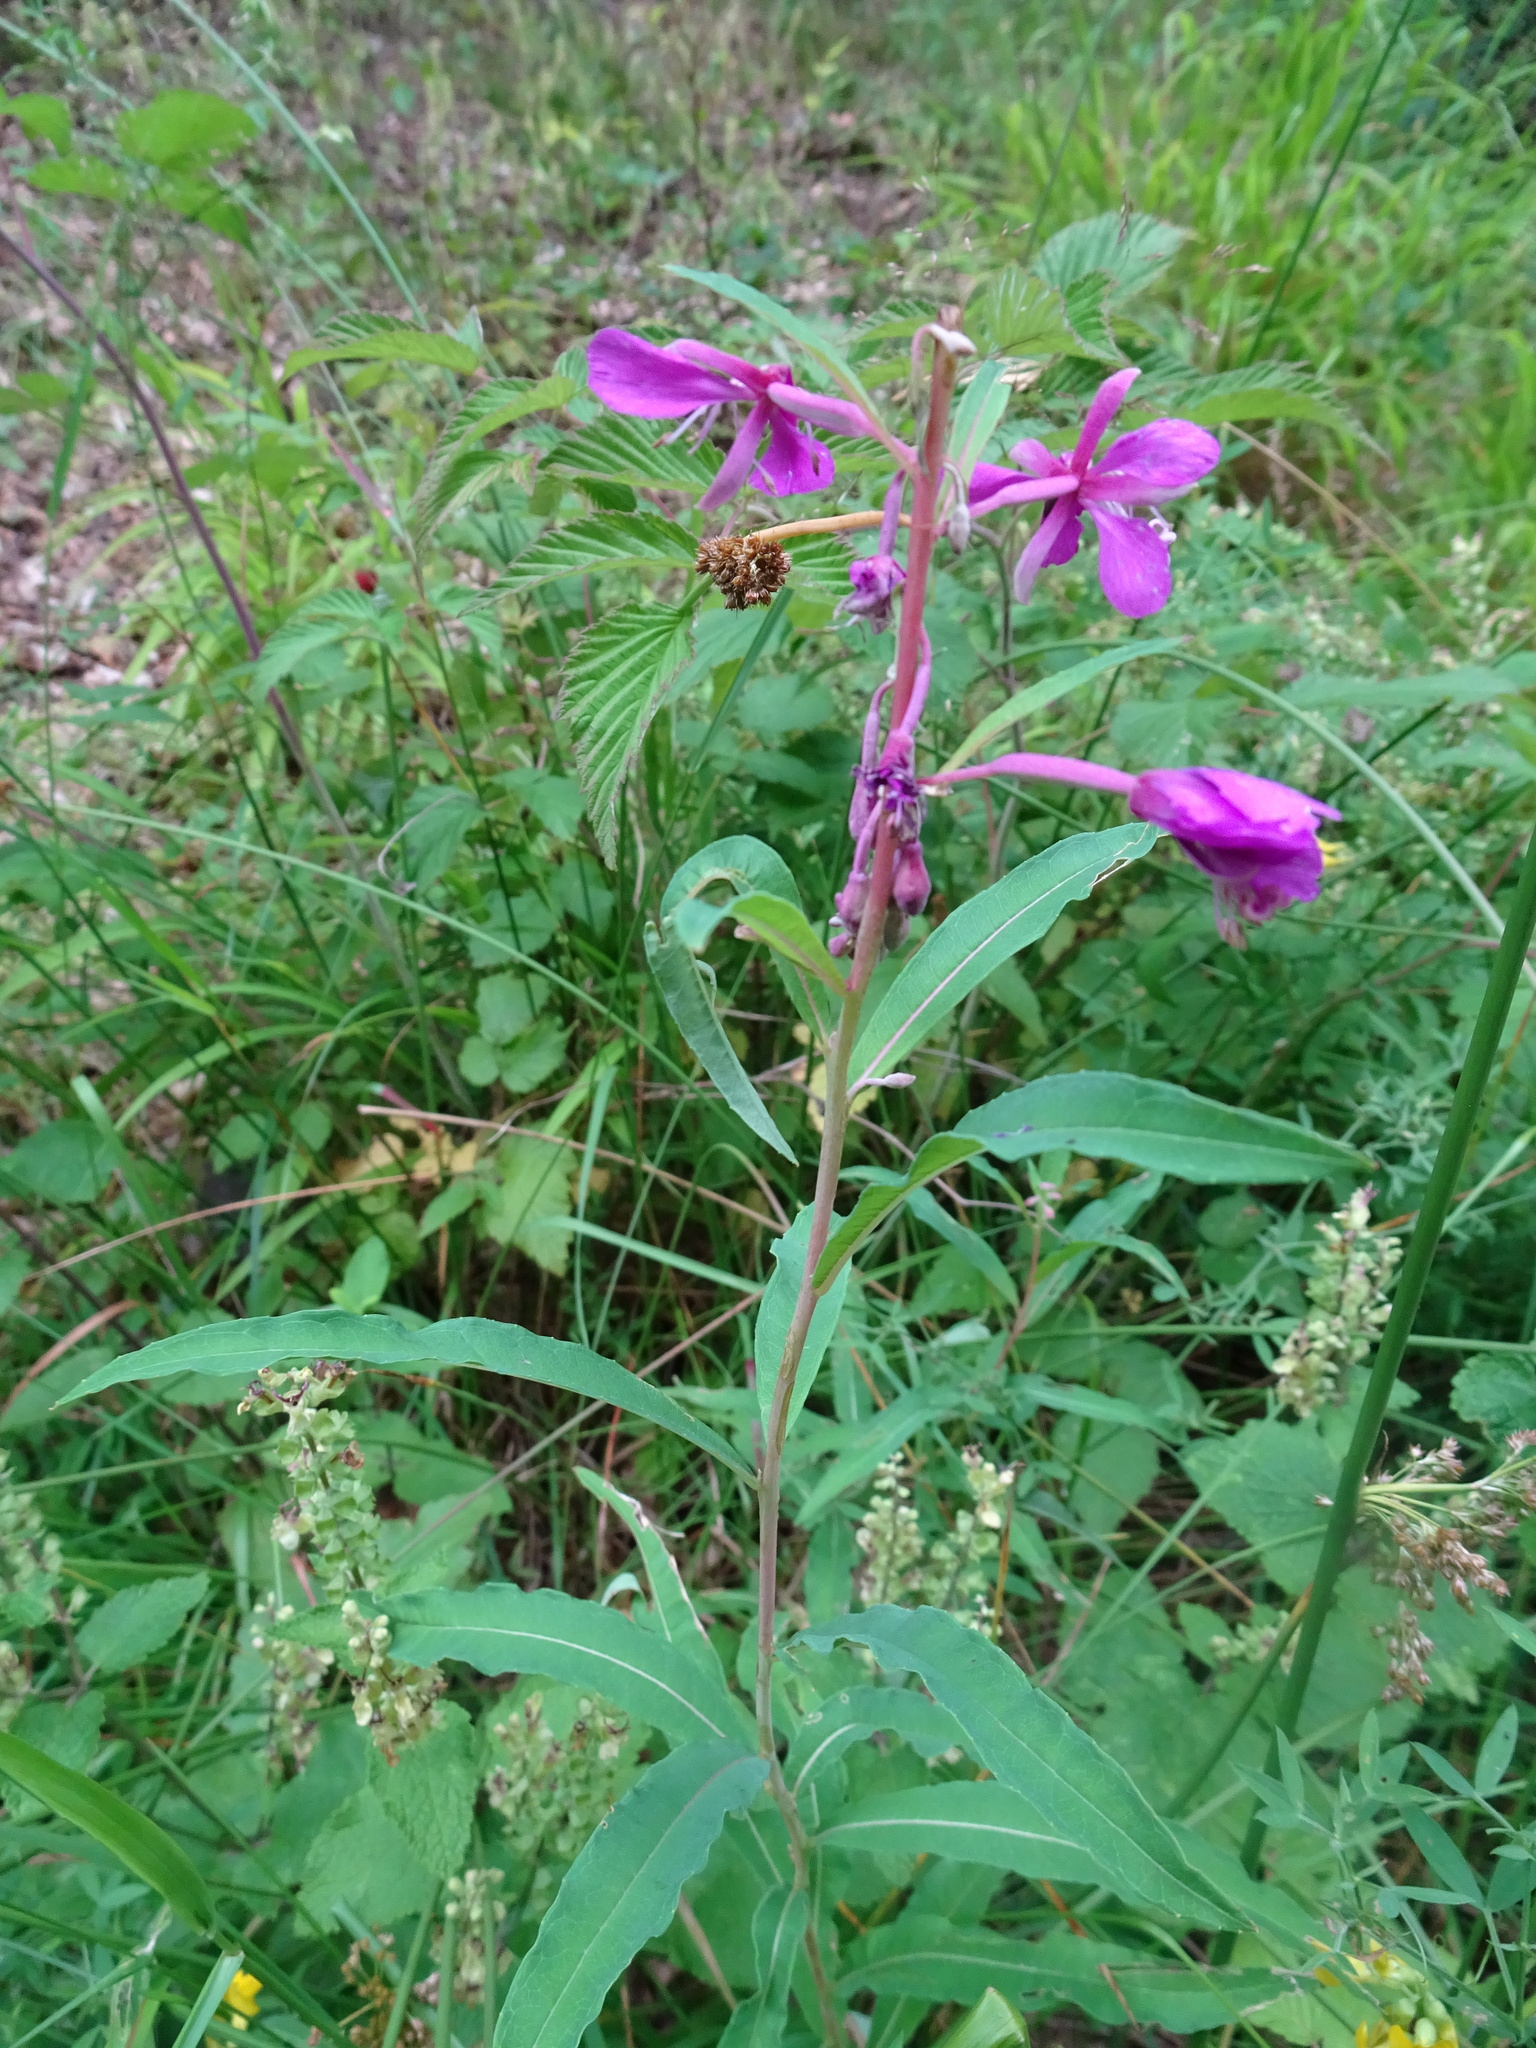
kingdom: Plantae
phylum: Tracheophyta
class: Magnoliopsida
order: Myrtales
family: Onagraceae
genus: Chamaenerion
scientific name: Chamaenerion angustifolium
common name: Fireweed
